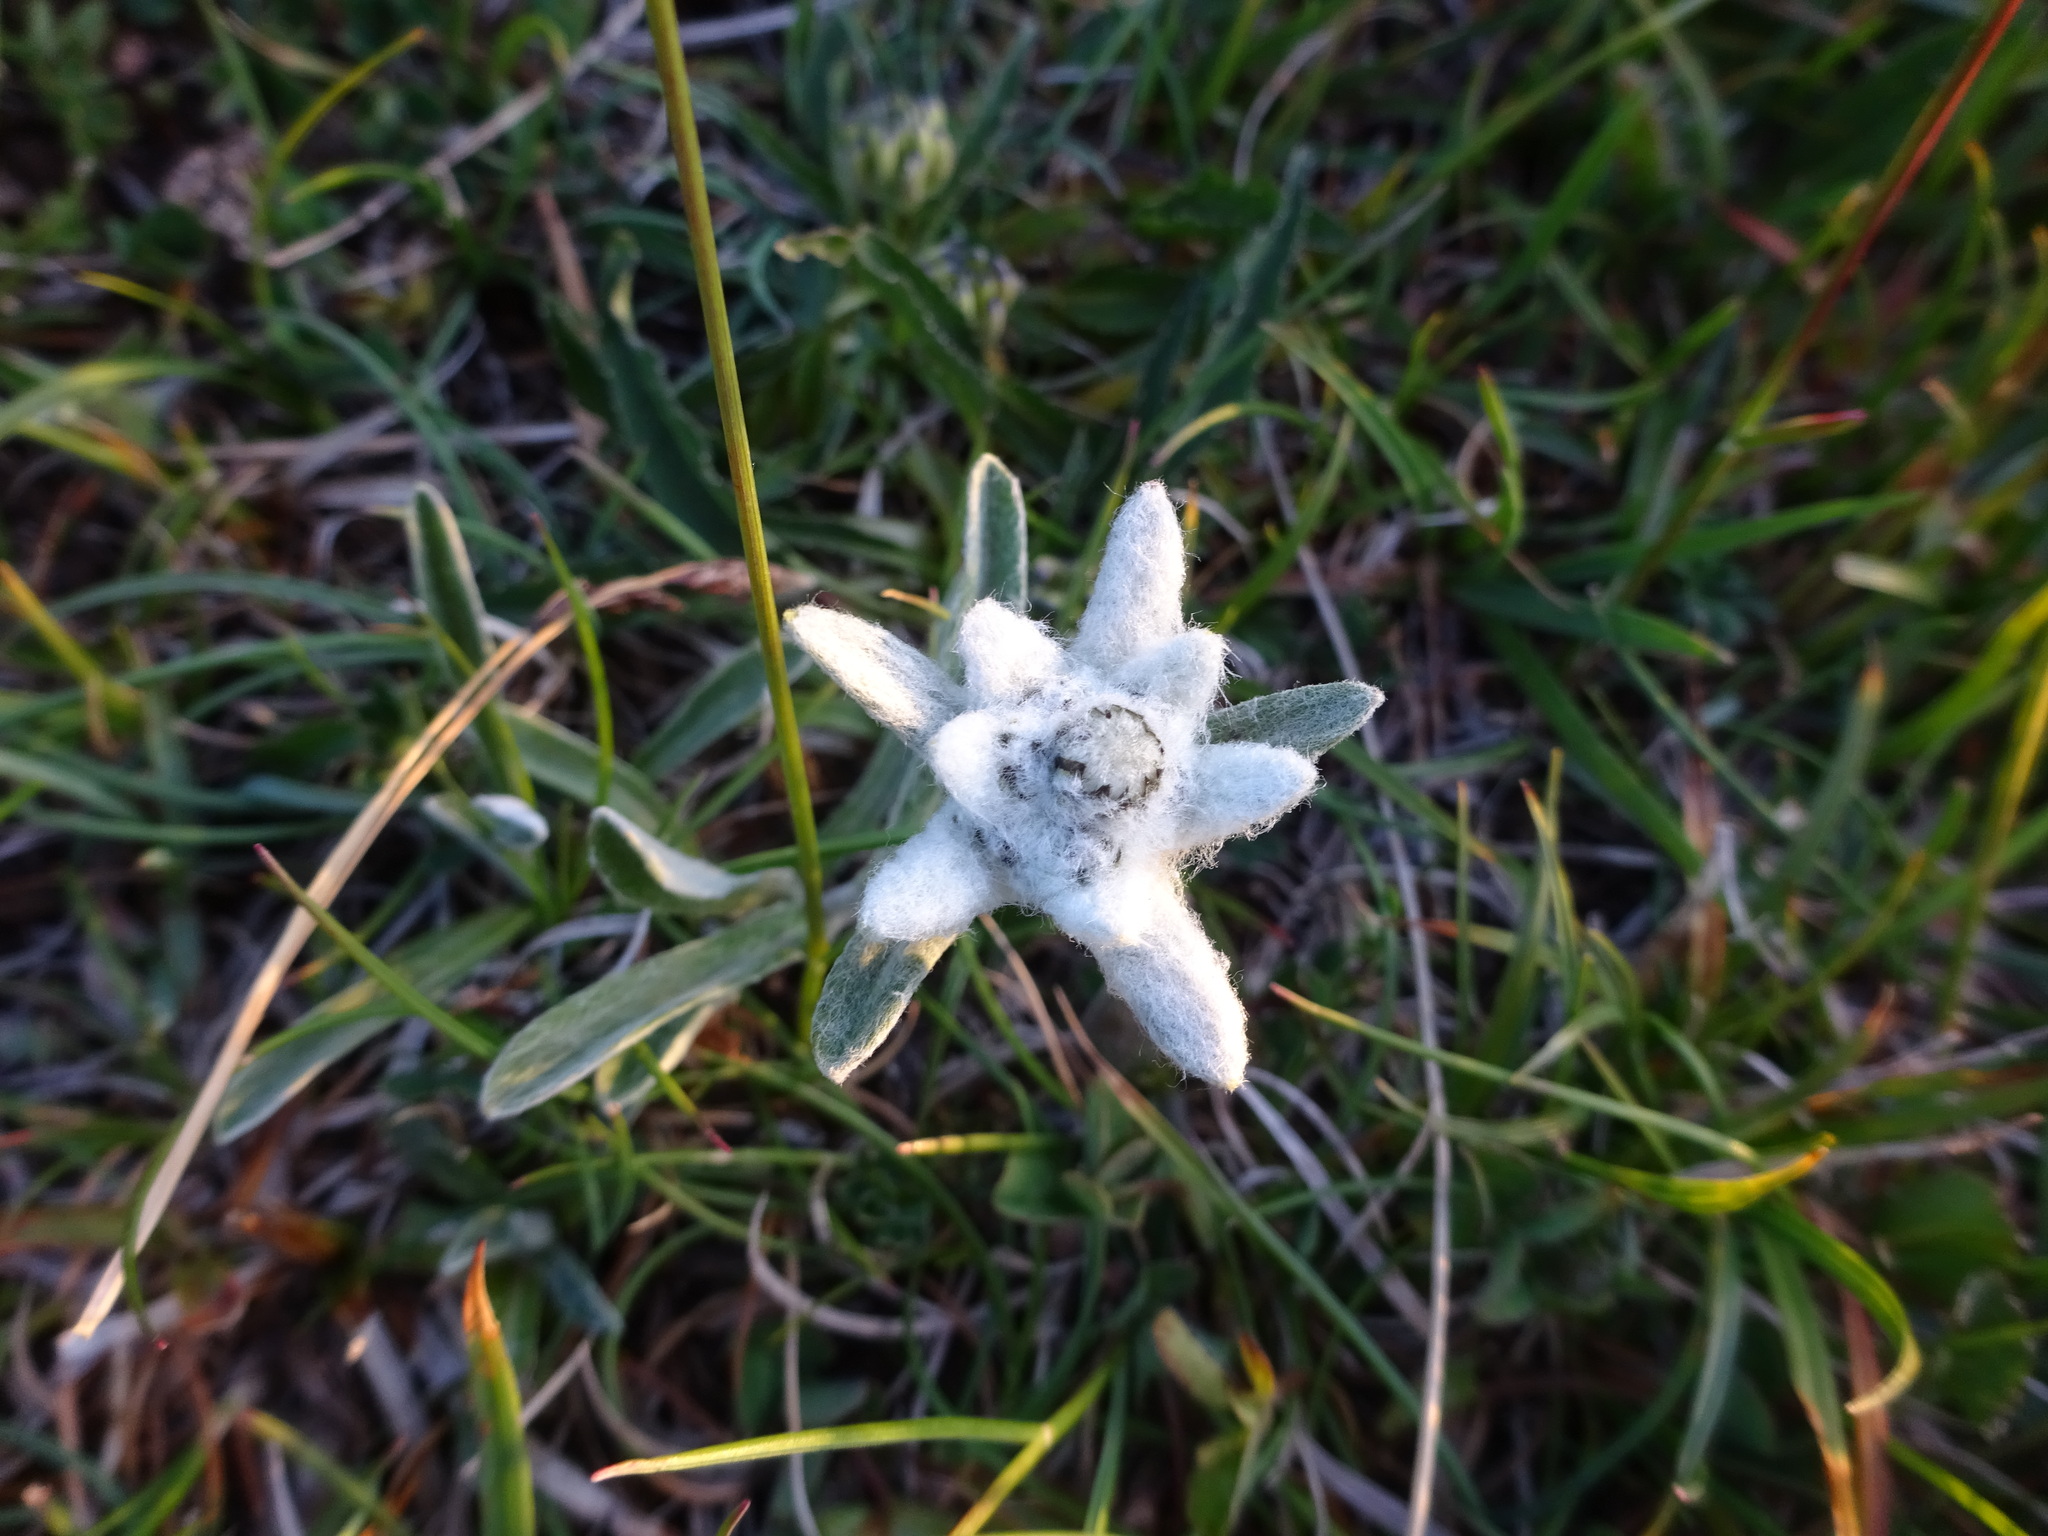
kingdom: Plantae
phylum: Tracheophyta
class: Magnoliopsida
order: Asterales
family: Asteraceae
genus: Leontopodium
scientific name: Leontopodium nivale
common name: Edelweiss
